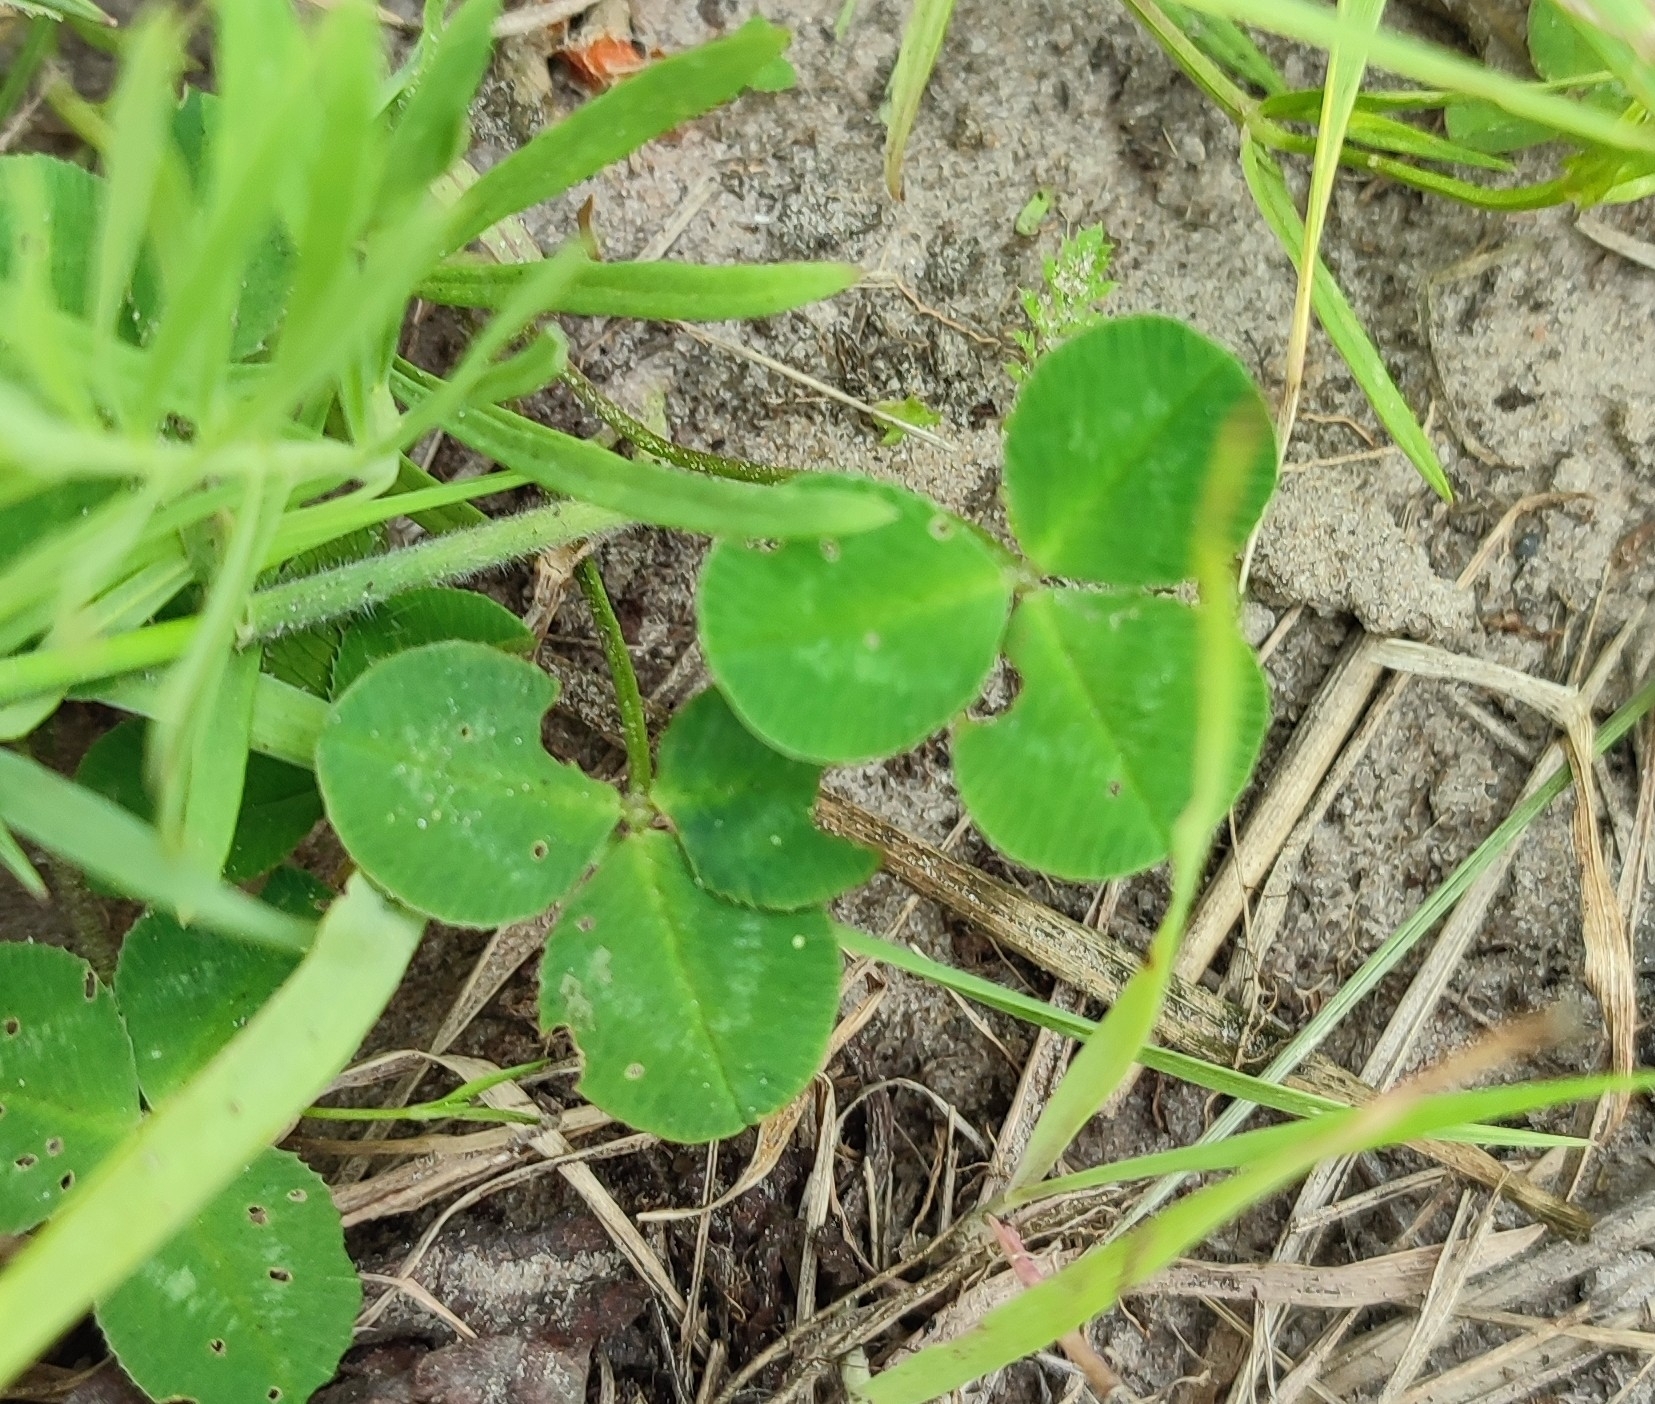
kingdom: Plantae
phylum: Tracheophyta
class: Magnoliopsida
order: Fabales
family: Fabaceae
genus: Trifolium
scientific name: Trifolium repens
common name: White clover
